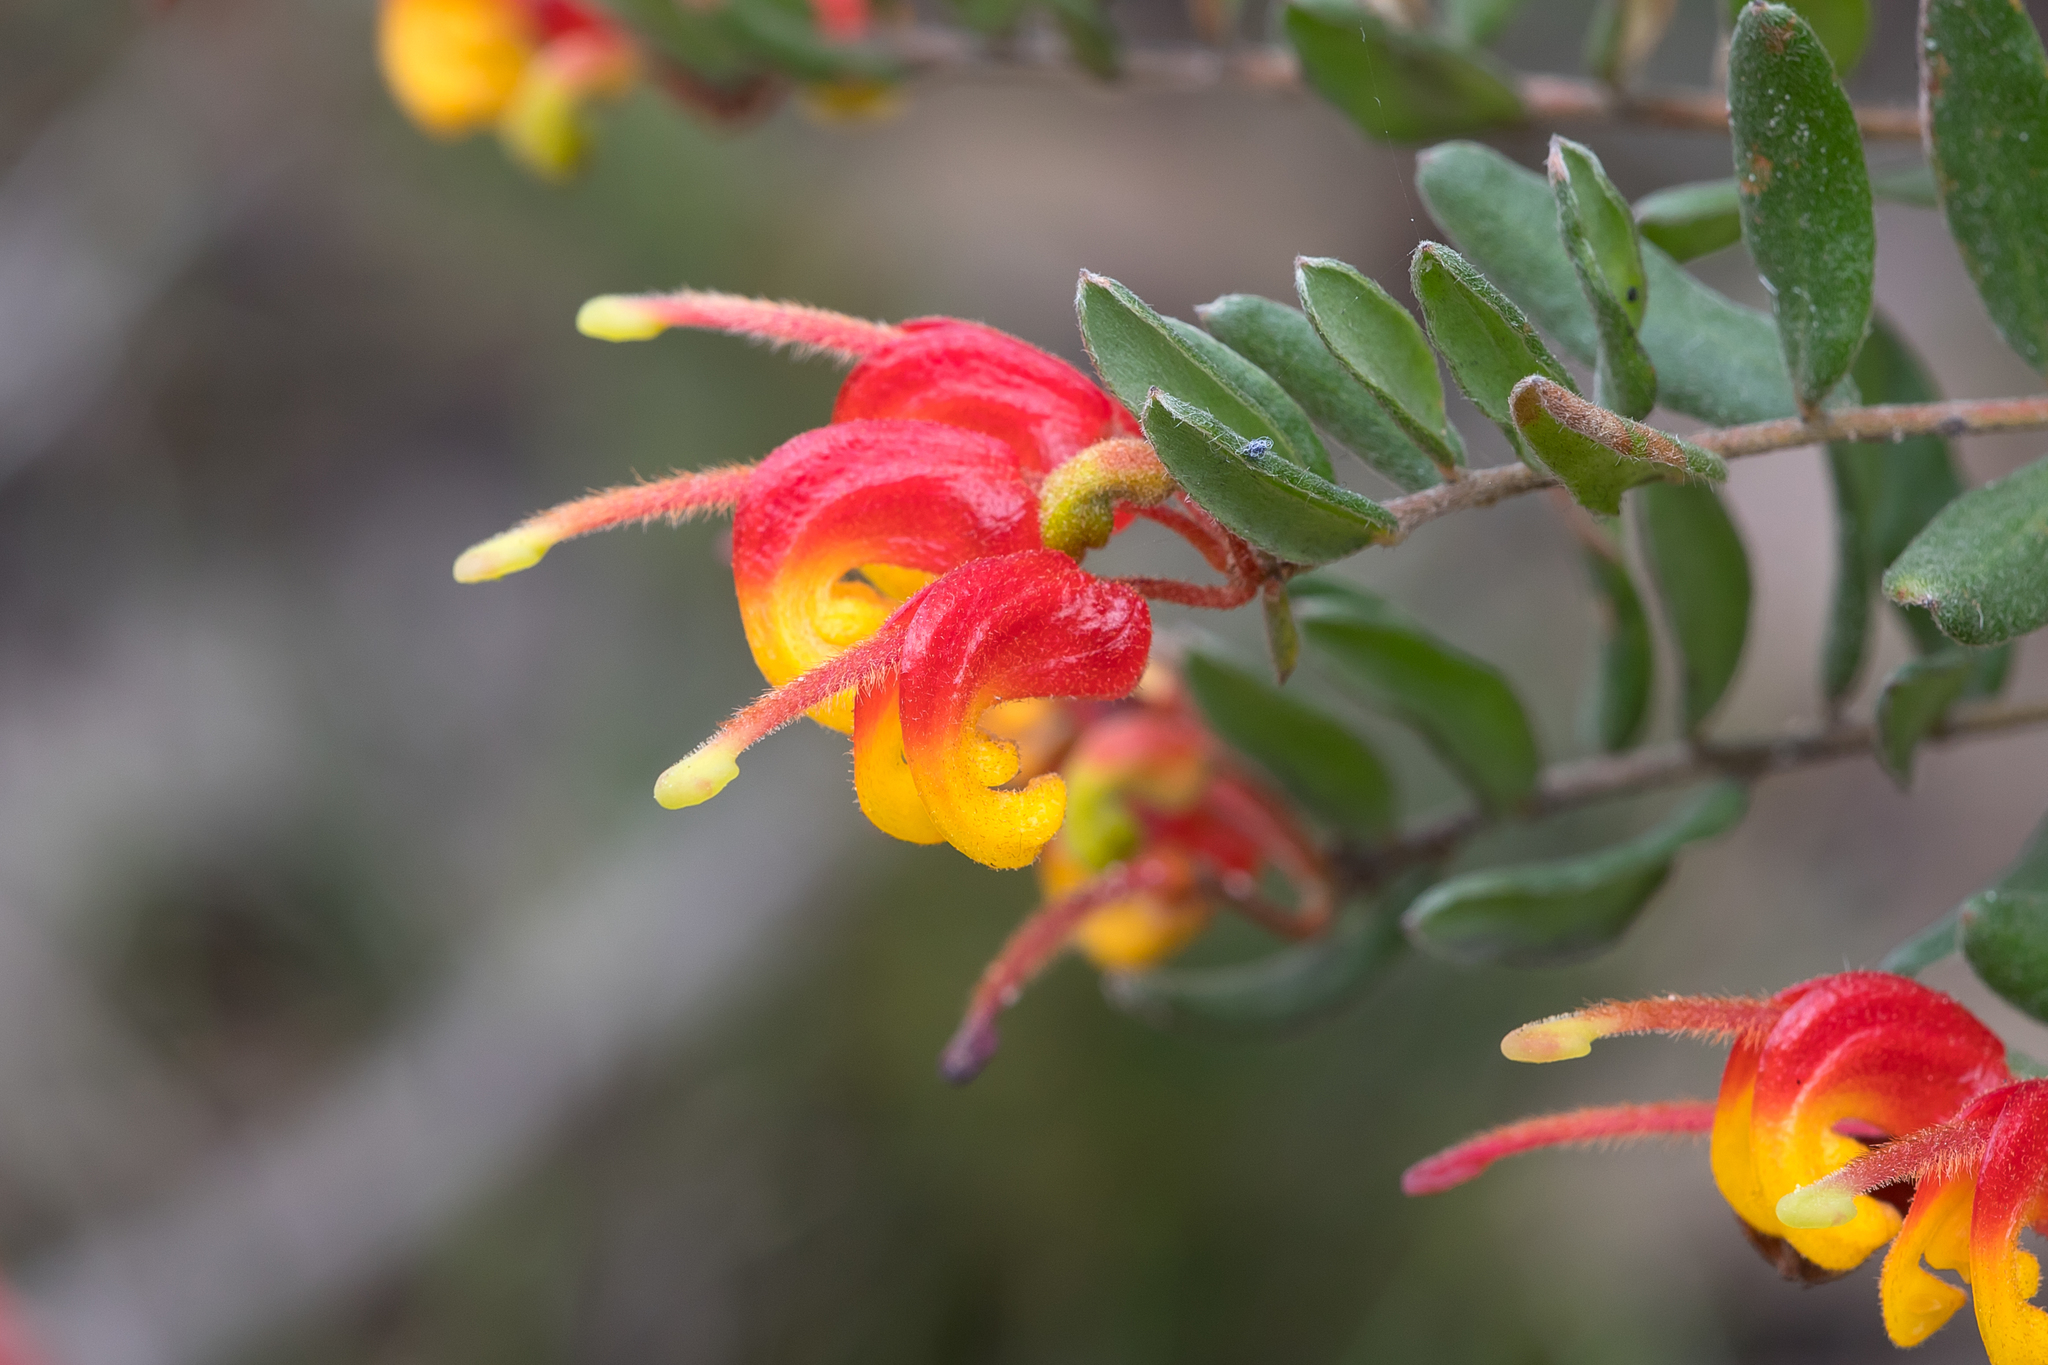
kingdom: Plantae
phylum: Tracheophyta
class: Magnoliopsida
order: Proteales
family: Proteaceae
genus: Grevillea
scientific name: Grevillea alpina
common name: Catclaws grevillea
